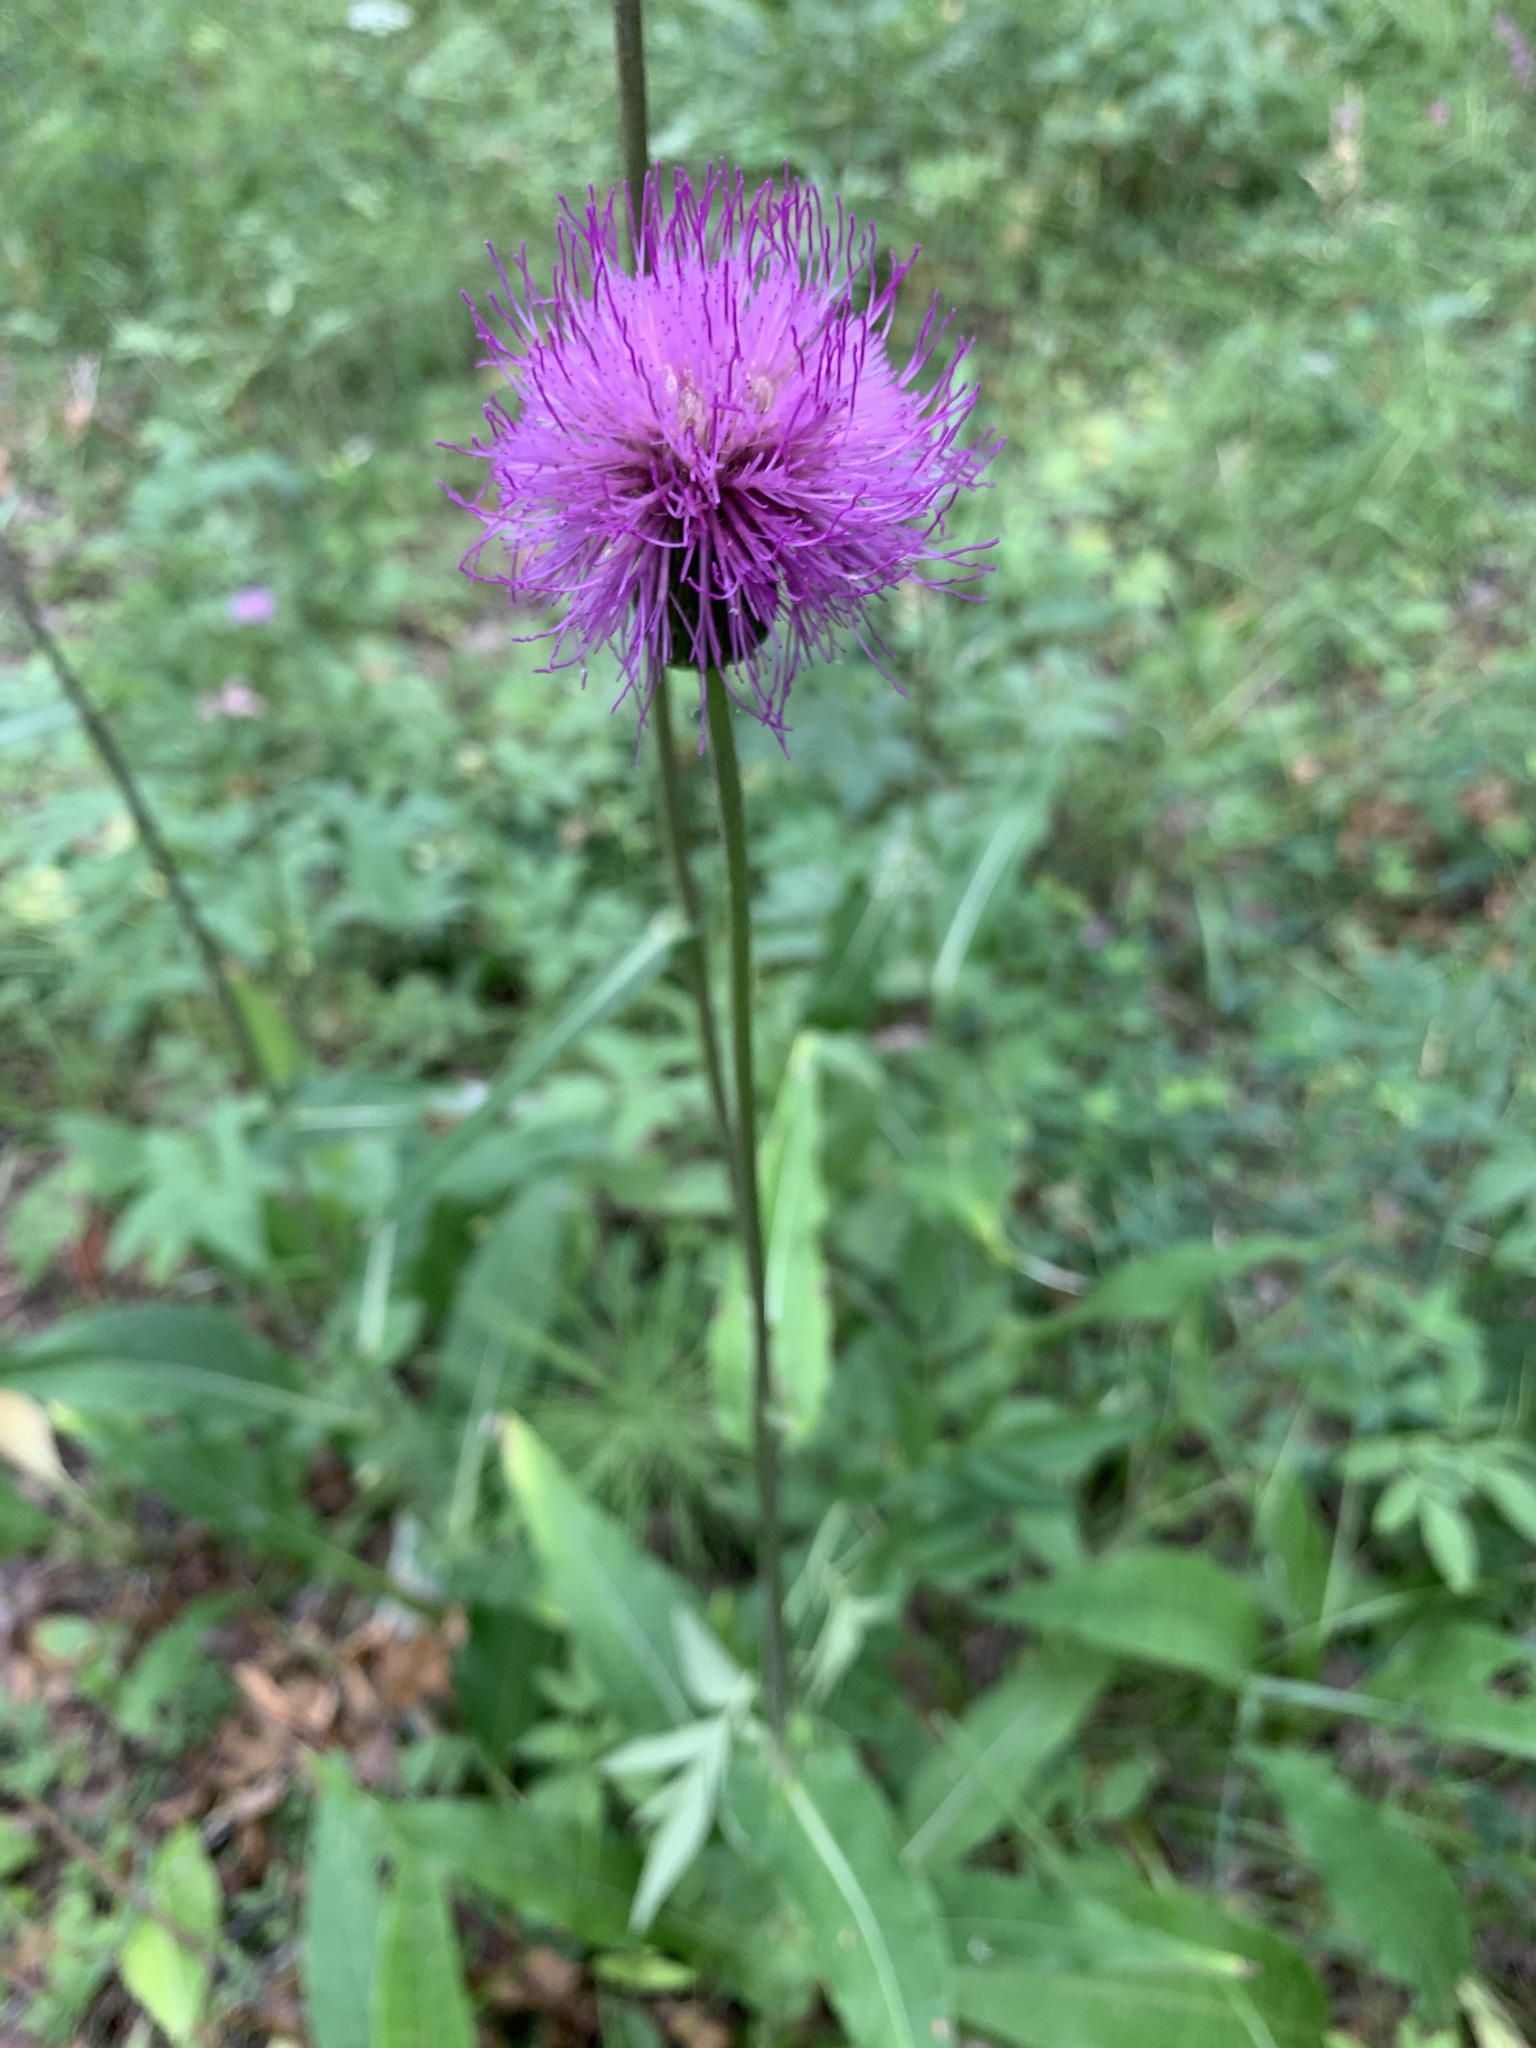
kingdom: Plantae
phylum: Tracheophyta
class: Magnoliopsida
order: Asterales
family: Asteraceae
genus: Cirsium
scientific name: Cirsium heterophyllum
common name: Melancholy thistle
